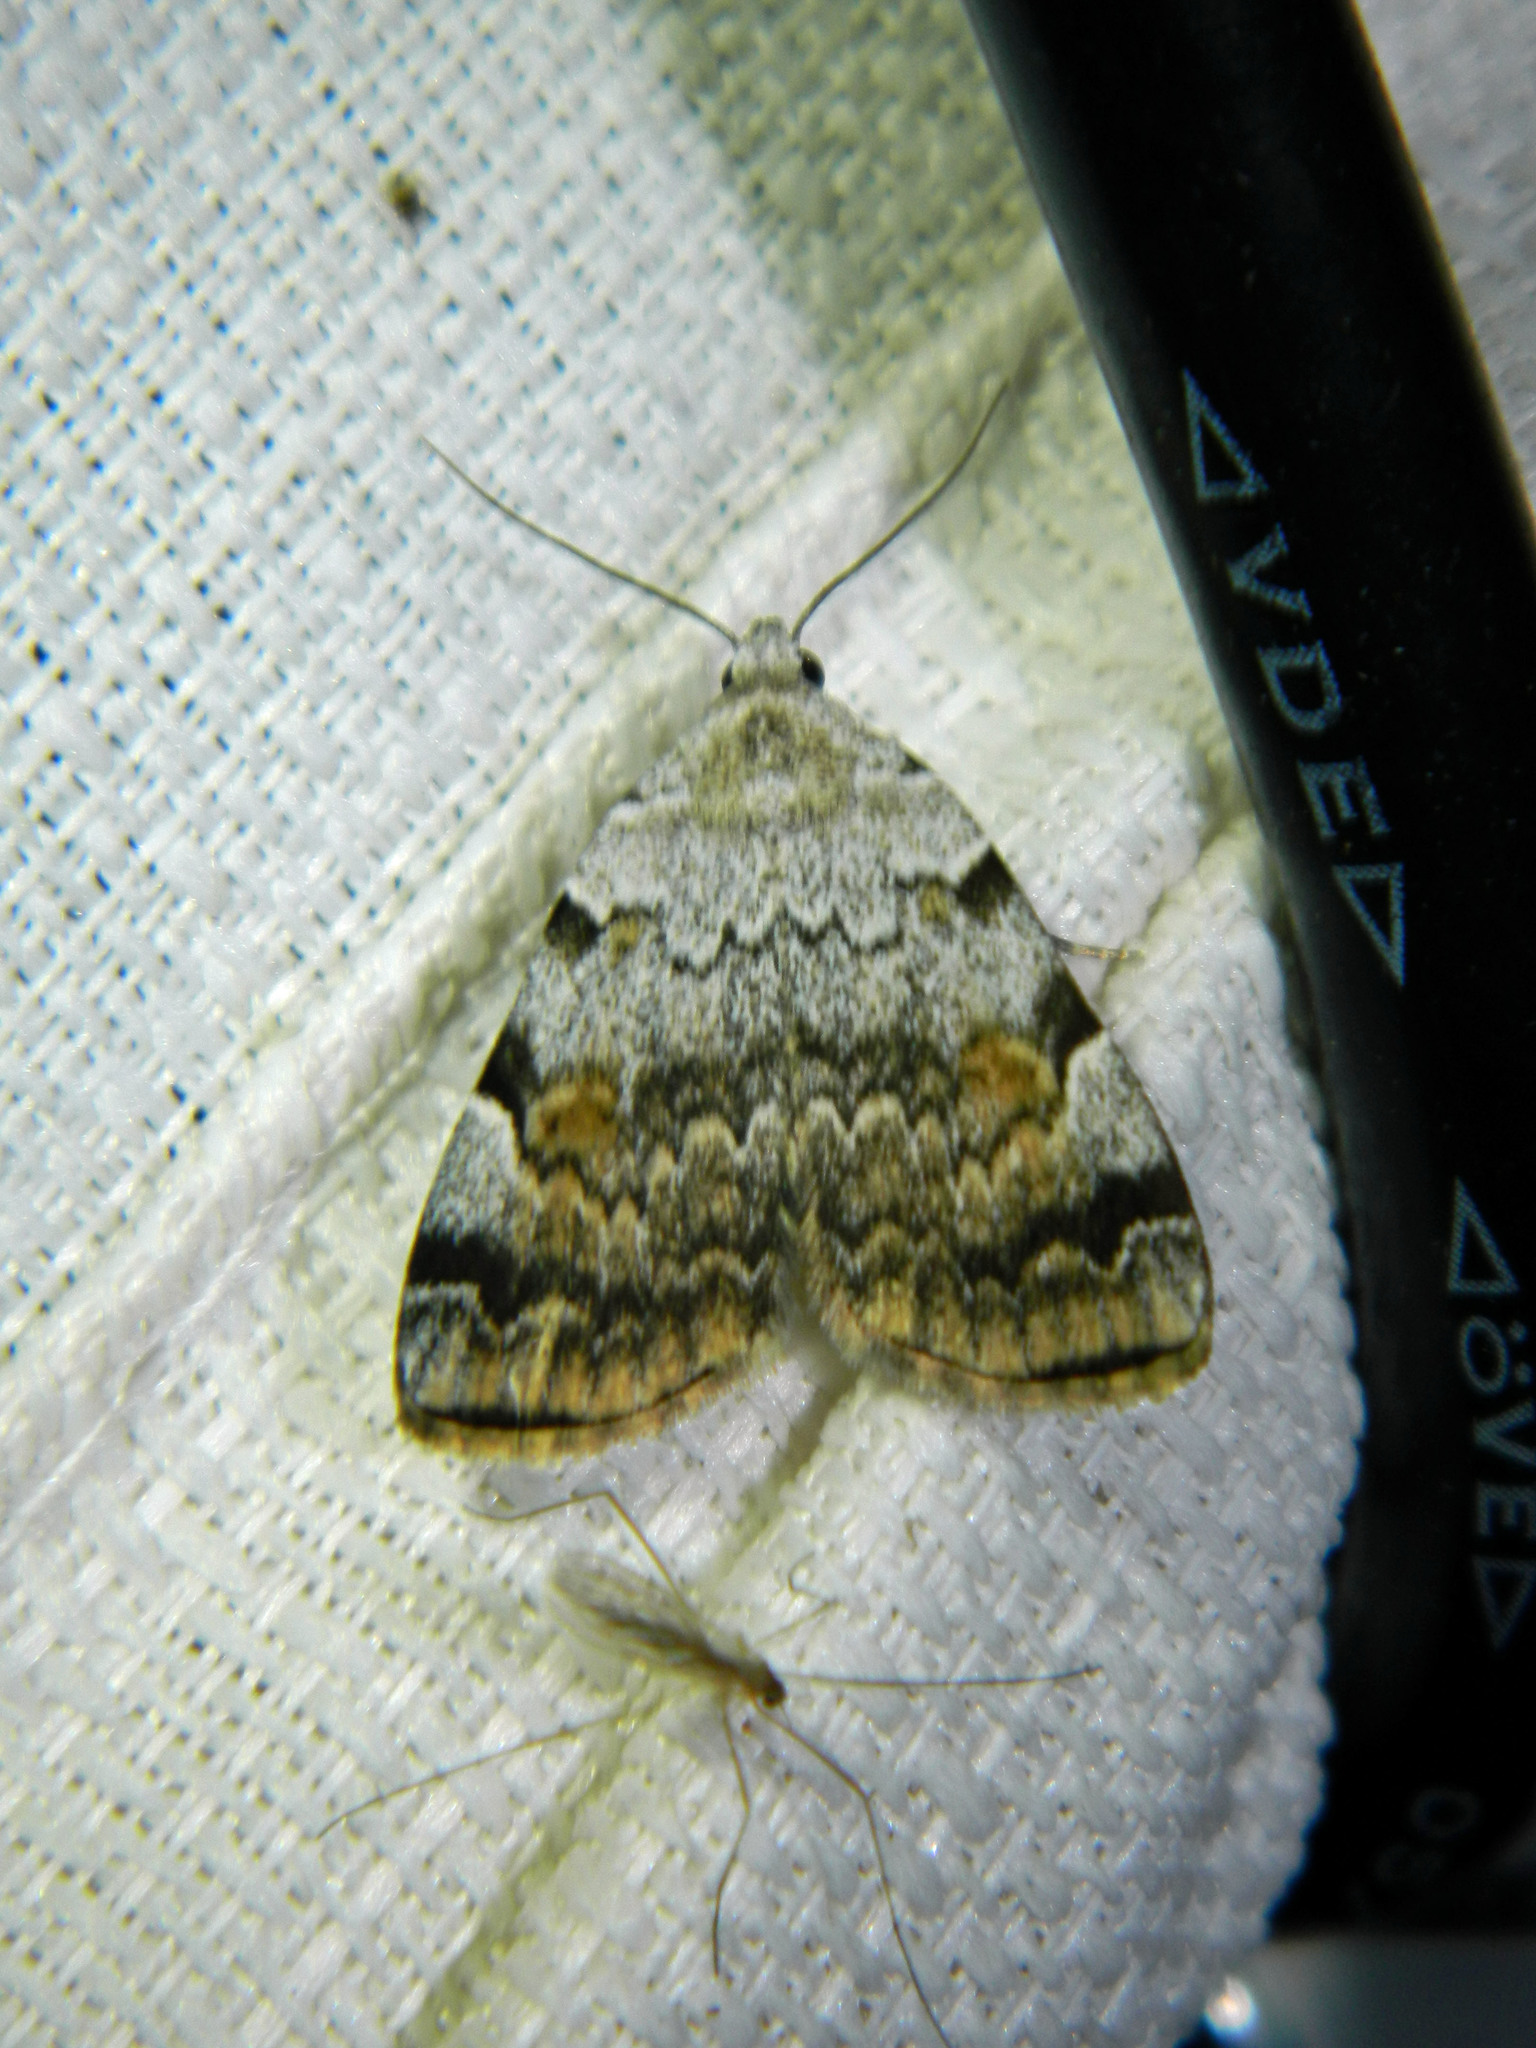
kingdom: Animalia
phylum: Arthropoda
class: Insecta
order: Lepidoptera
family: Erebidae
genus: Idia
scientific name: Idia americalis
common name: American idia moth
